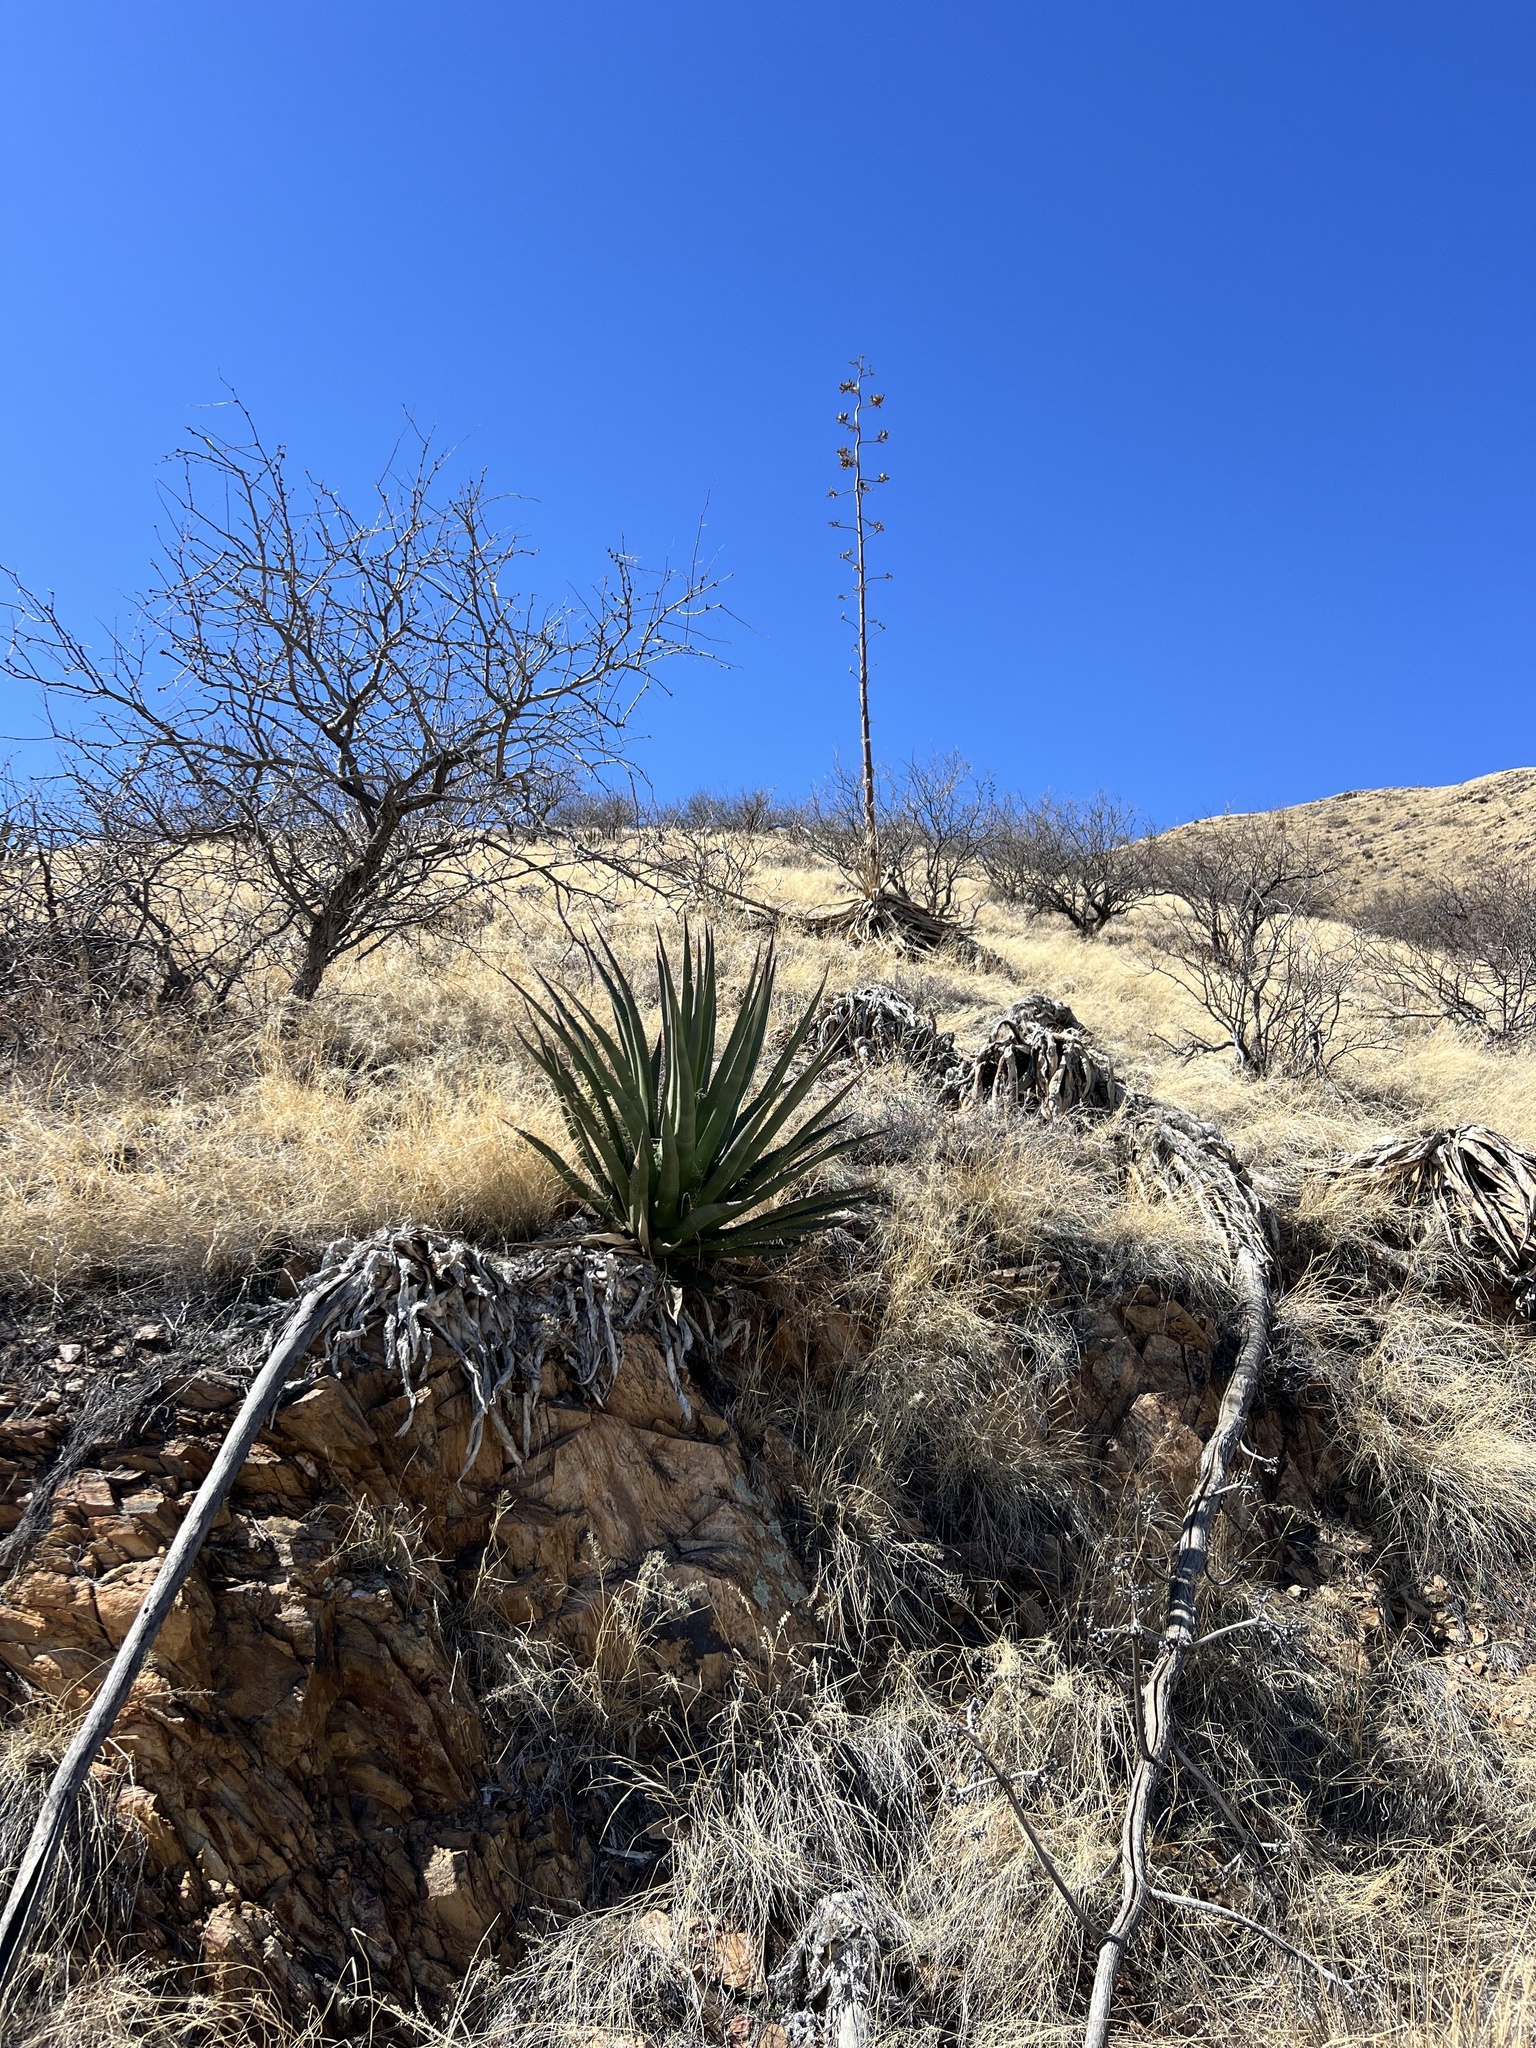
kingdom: Plantae
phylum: Tracheophyta
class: Liliopsida
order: Asparagales
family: Asparagaceae
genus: Agave
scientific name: Agave palmeri
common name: Palmer agave
